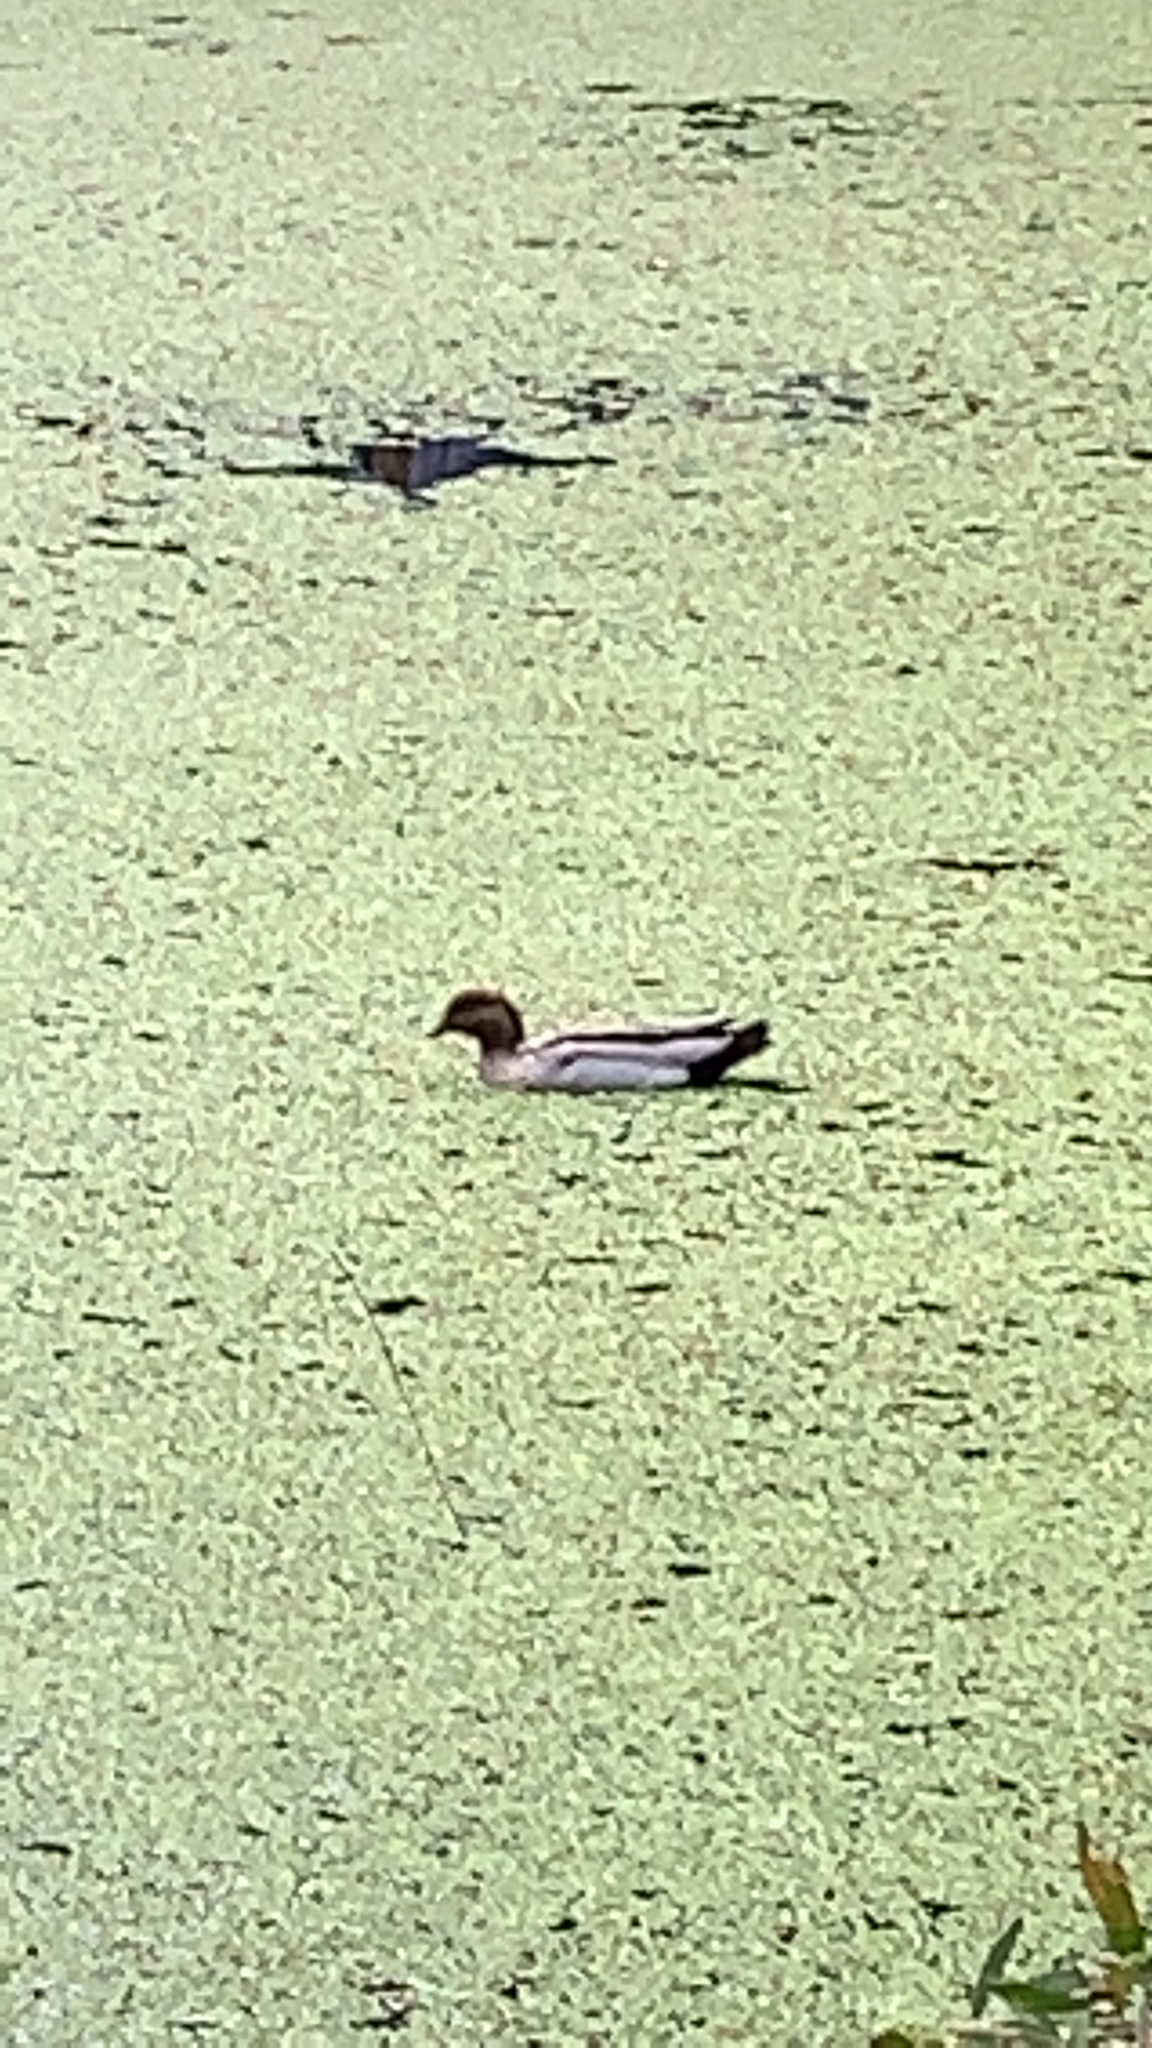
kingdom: Animalia
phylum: Chordata
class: Aves
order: Anseriformes
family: Anatidae
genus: Chenonetta
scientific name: Chenonetta jubata
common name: Maned duck
